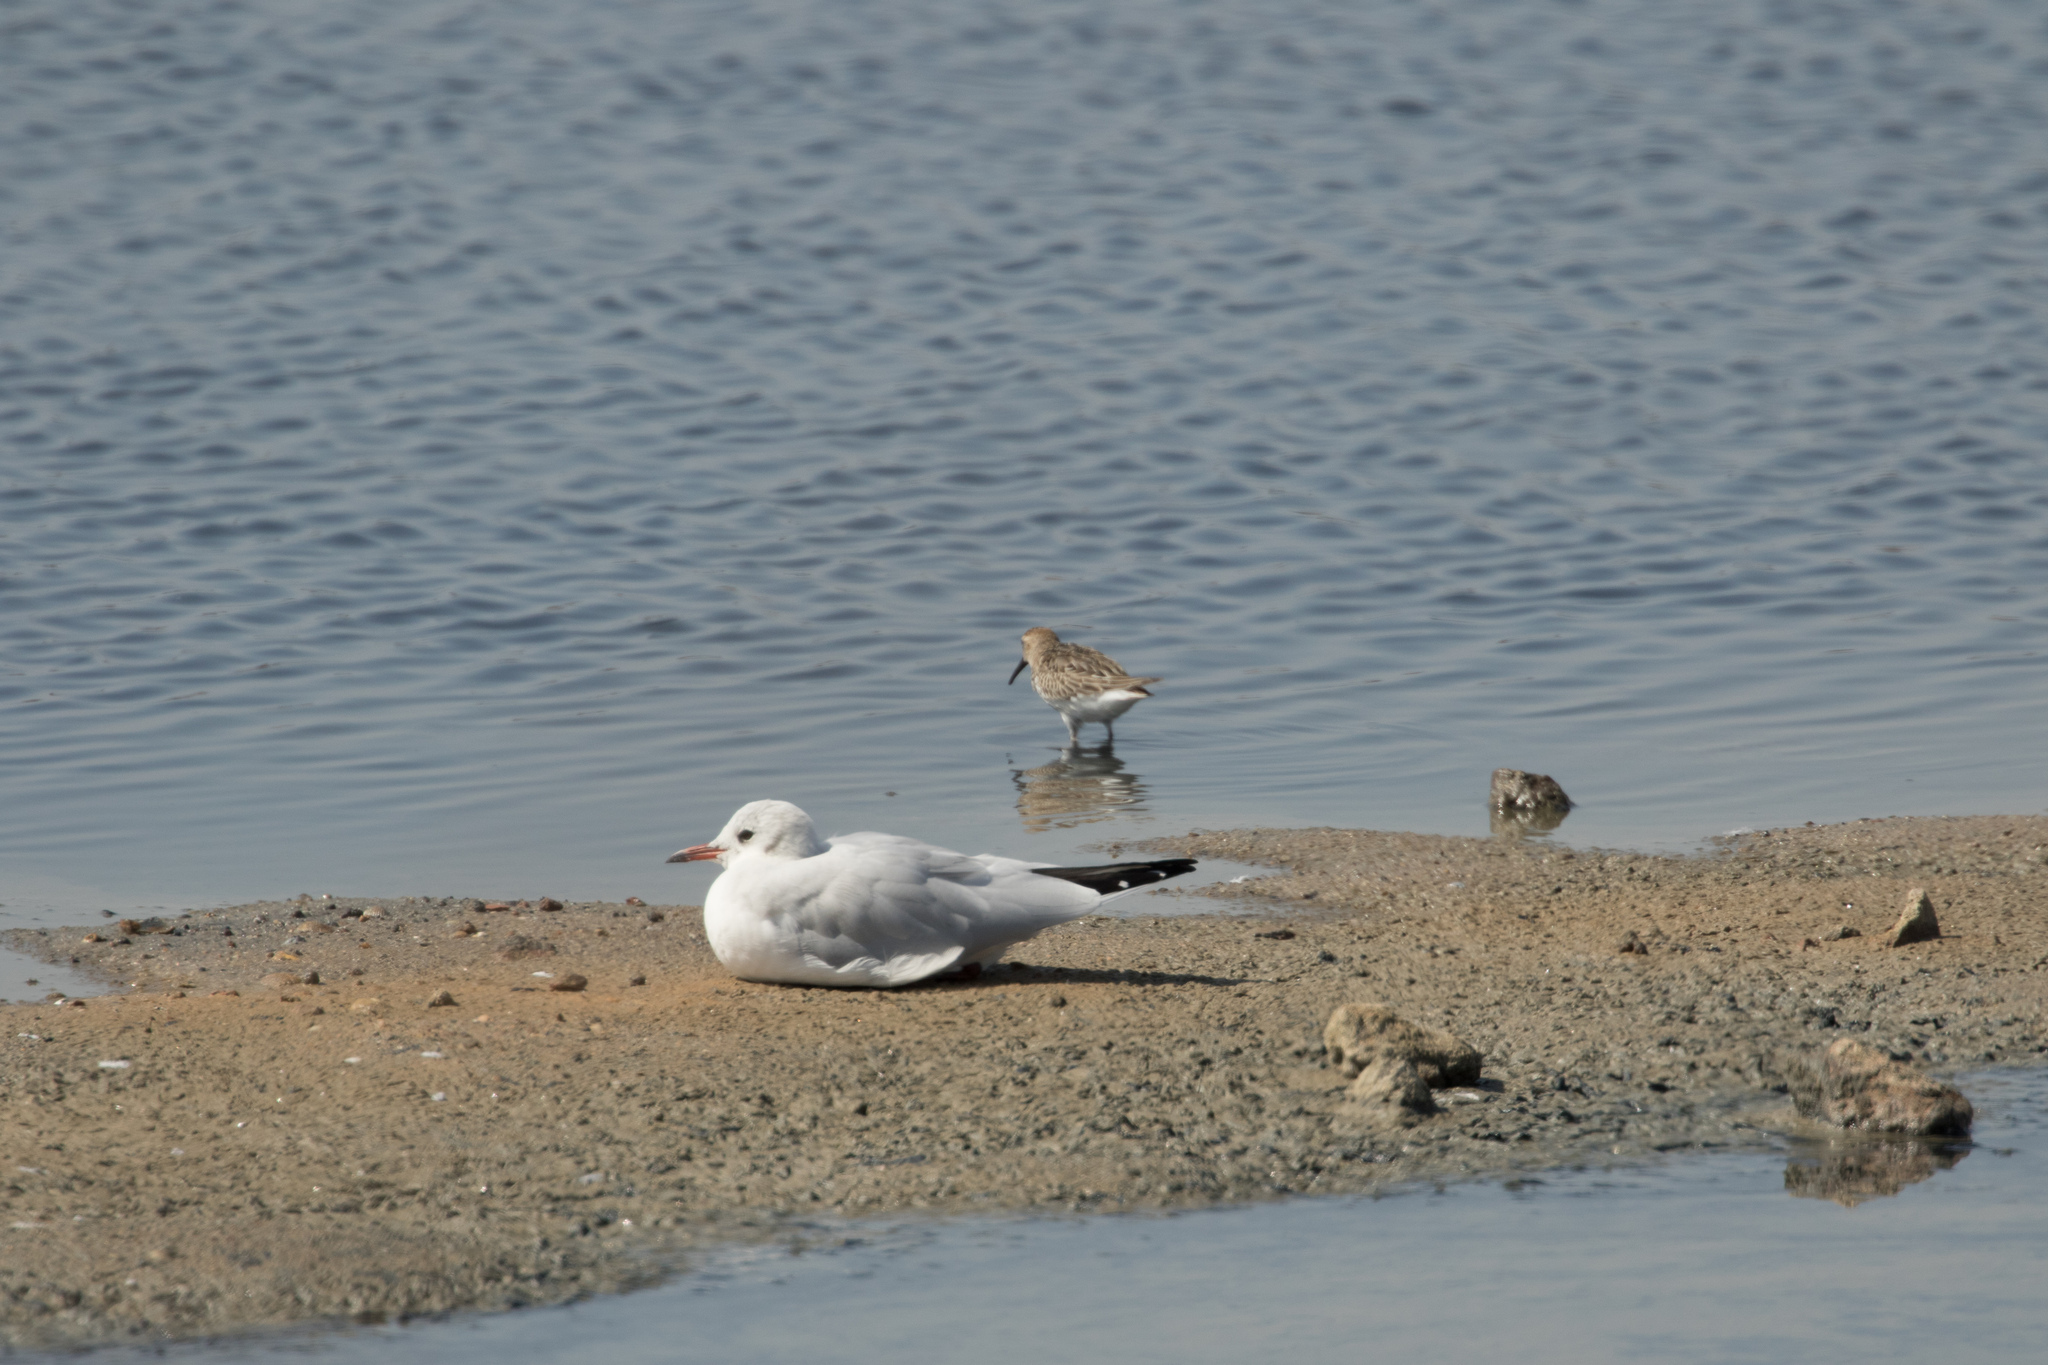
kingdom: Animalia
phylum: Chordata
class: Aves
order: Charadriiformes
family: Laridae
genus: Chroicocephalus
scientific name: Chroicocephalus ridibundus
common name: Black-headed gull
